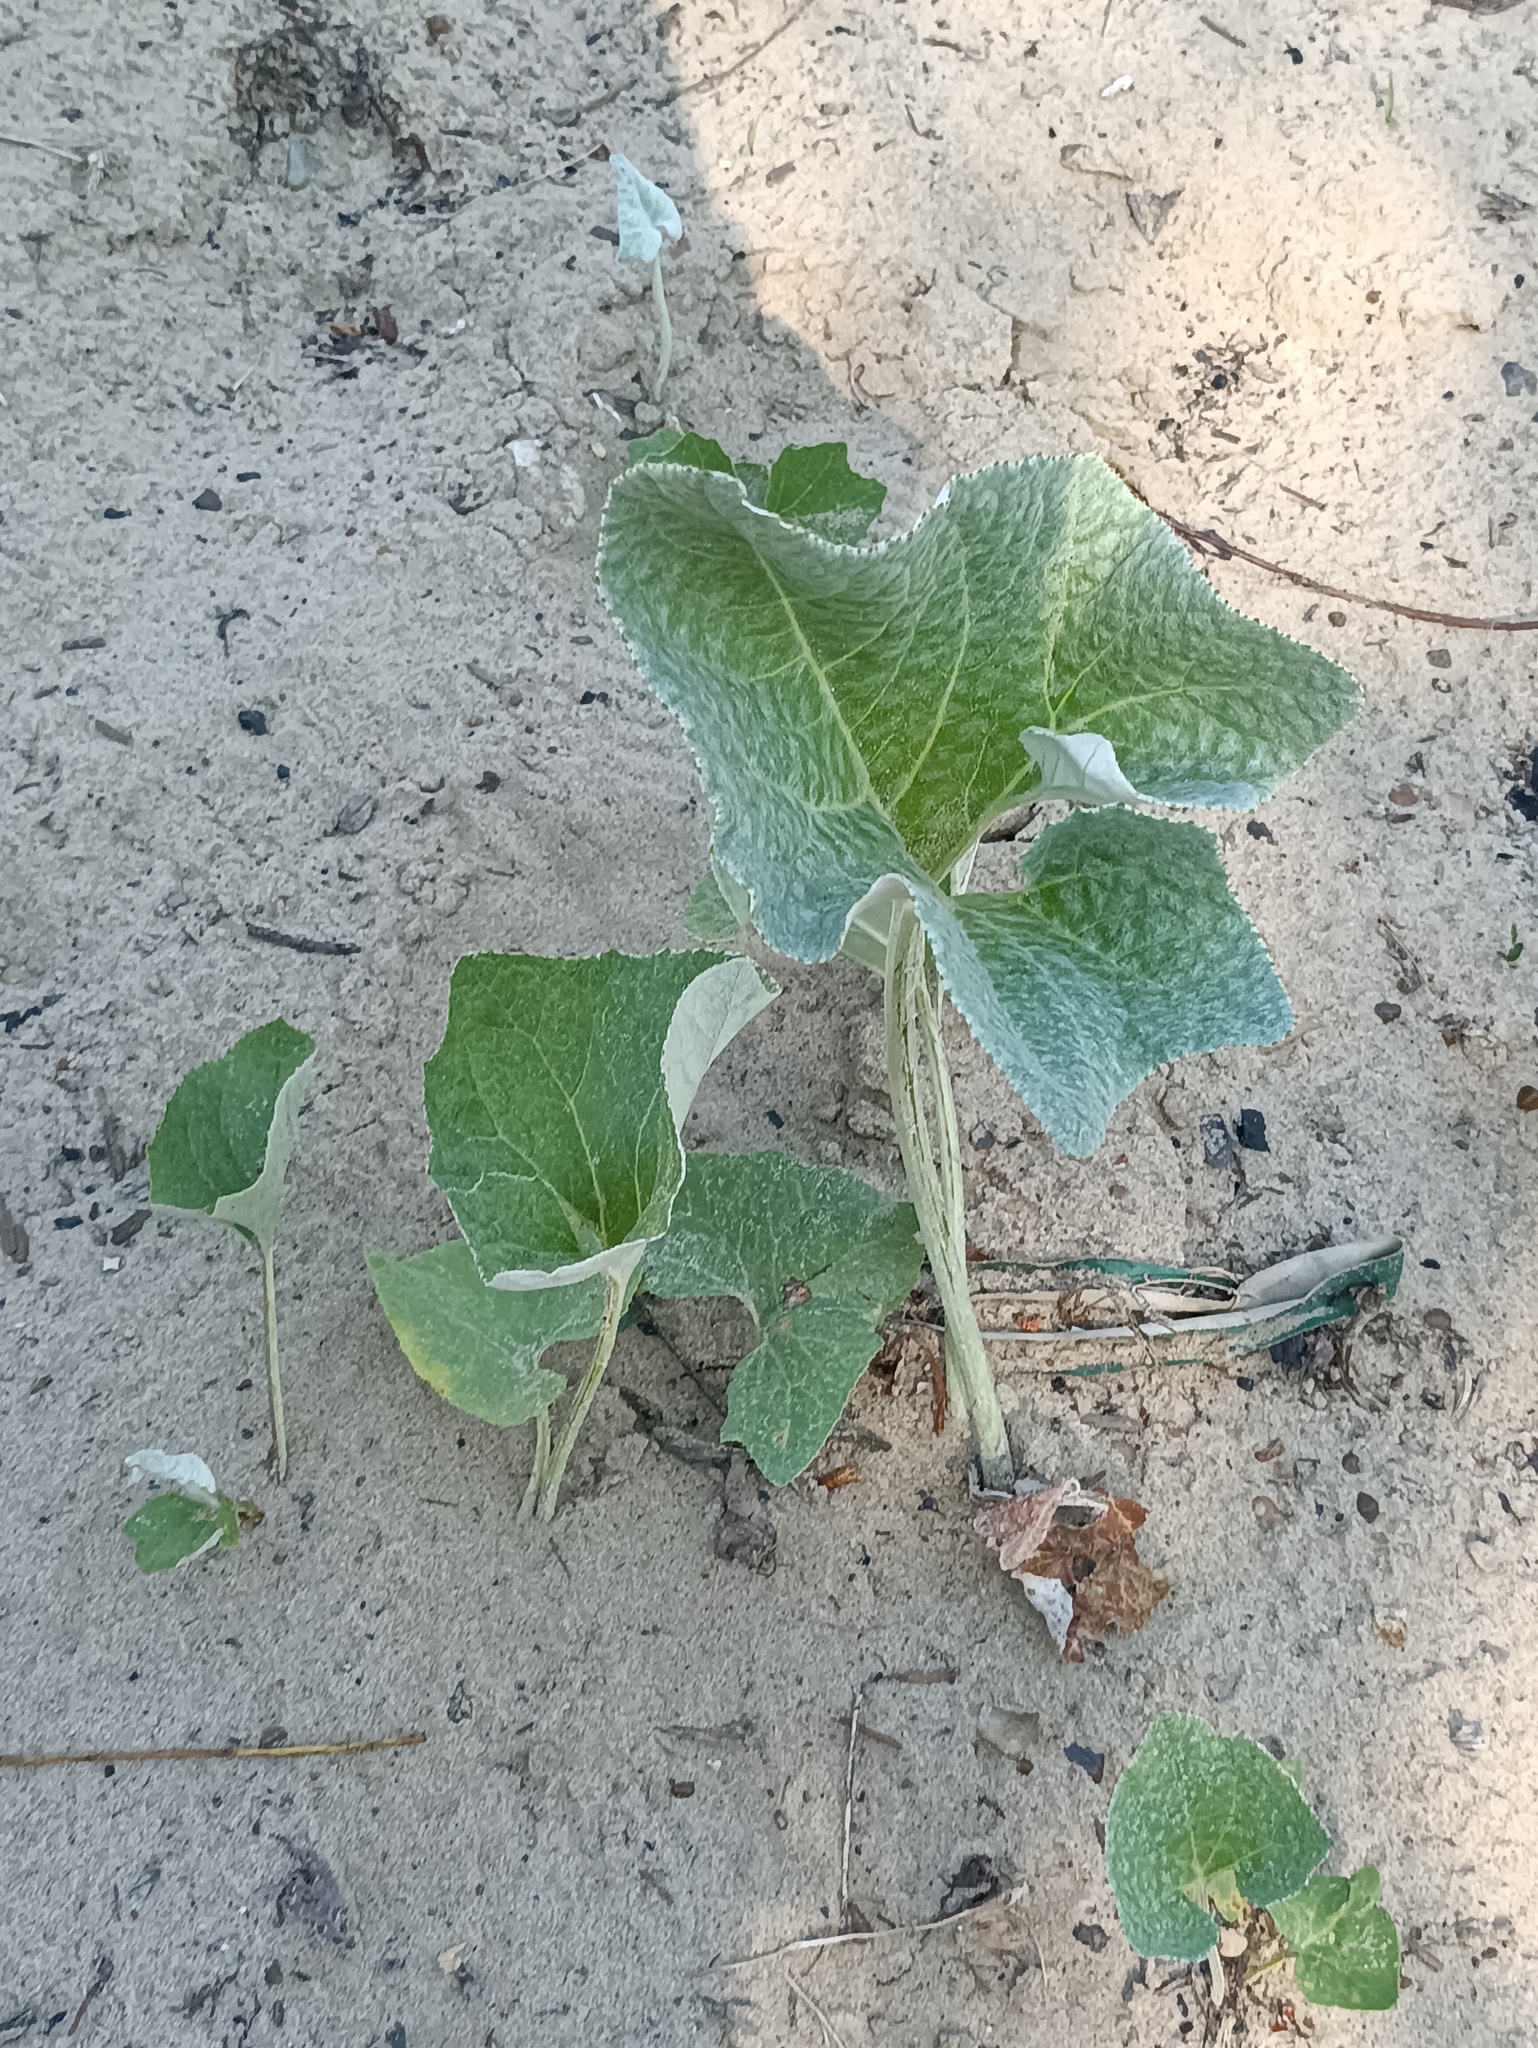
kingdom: Plantae
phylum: Tracheophyta
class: Magnoliopsida
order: Asterales
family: Asteraceae
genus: Petasites
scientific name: Petasites spurius
